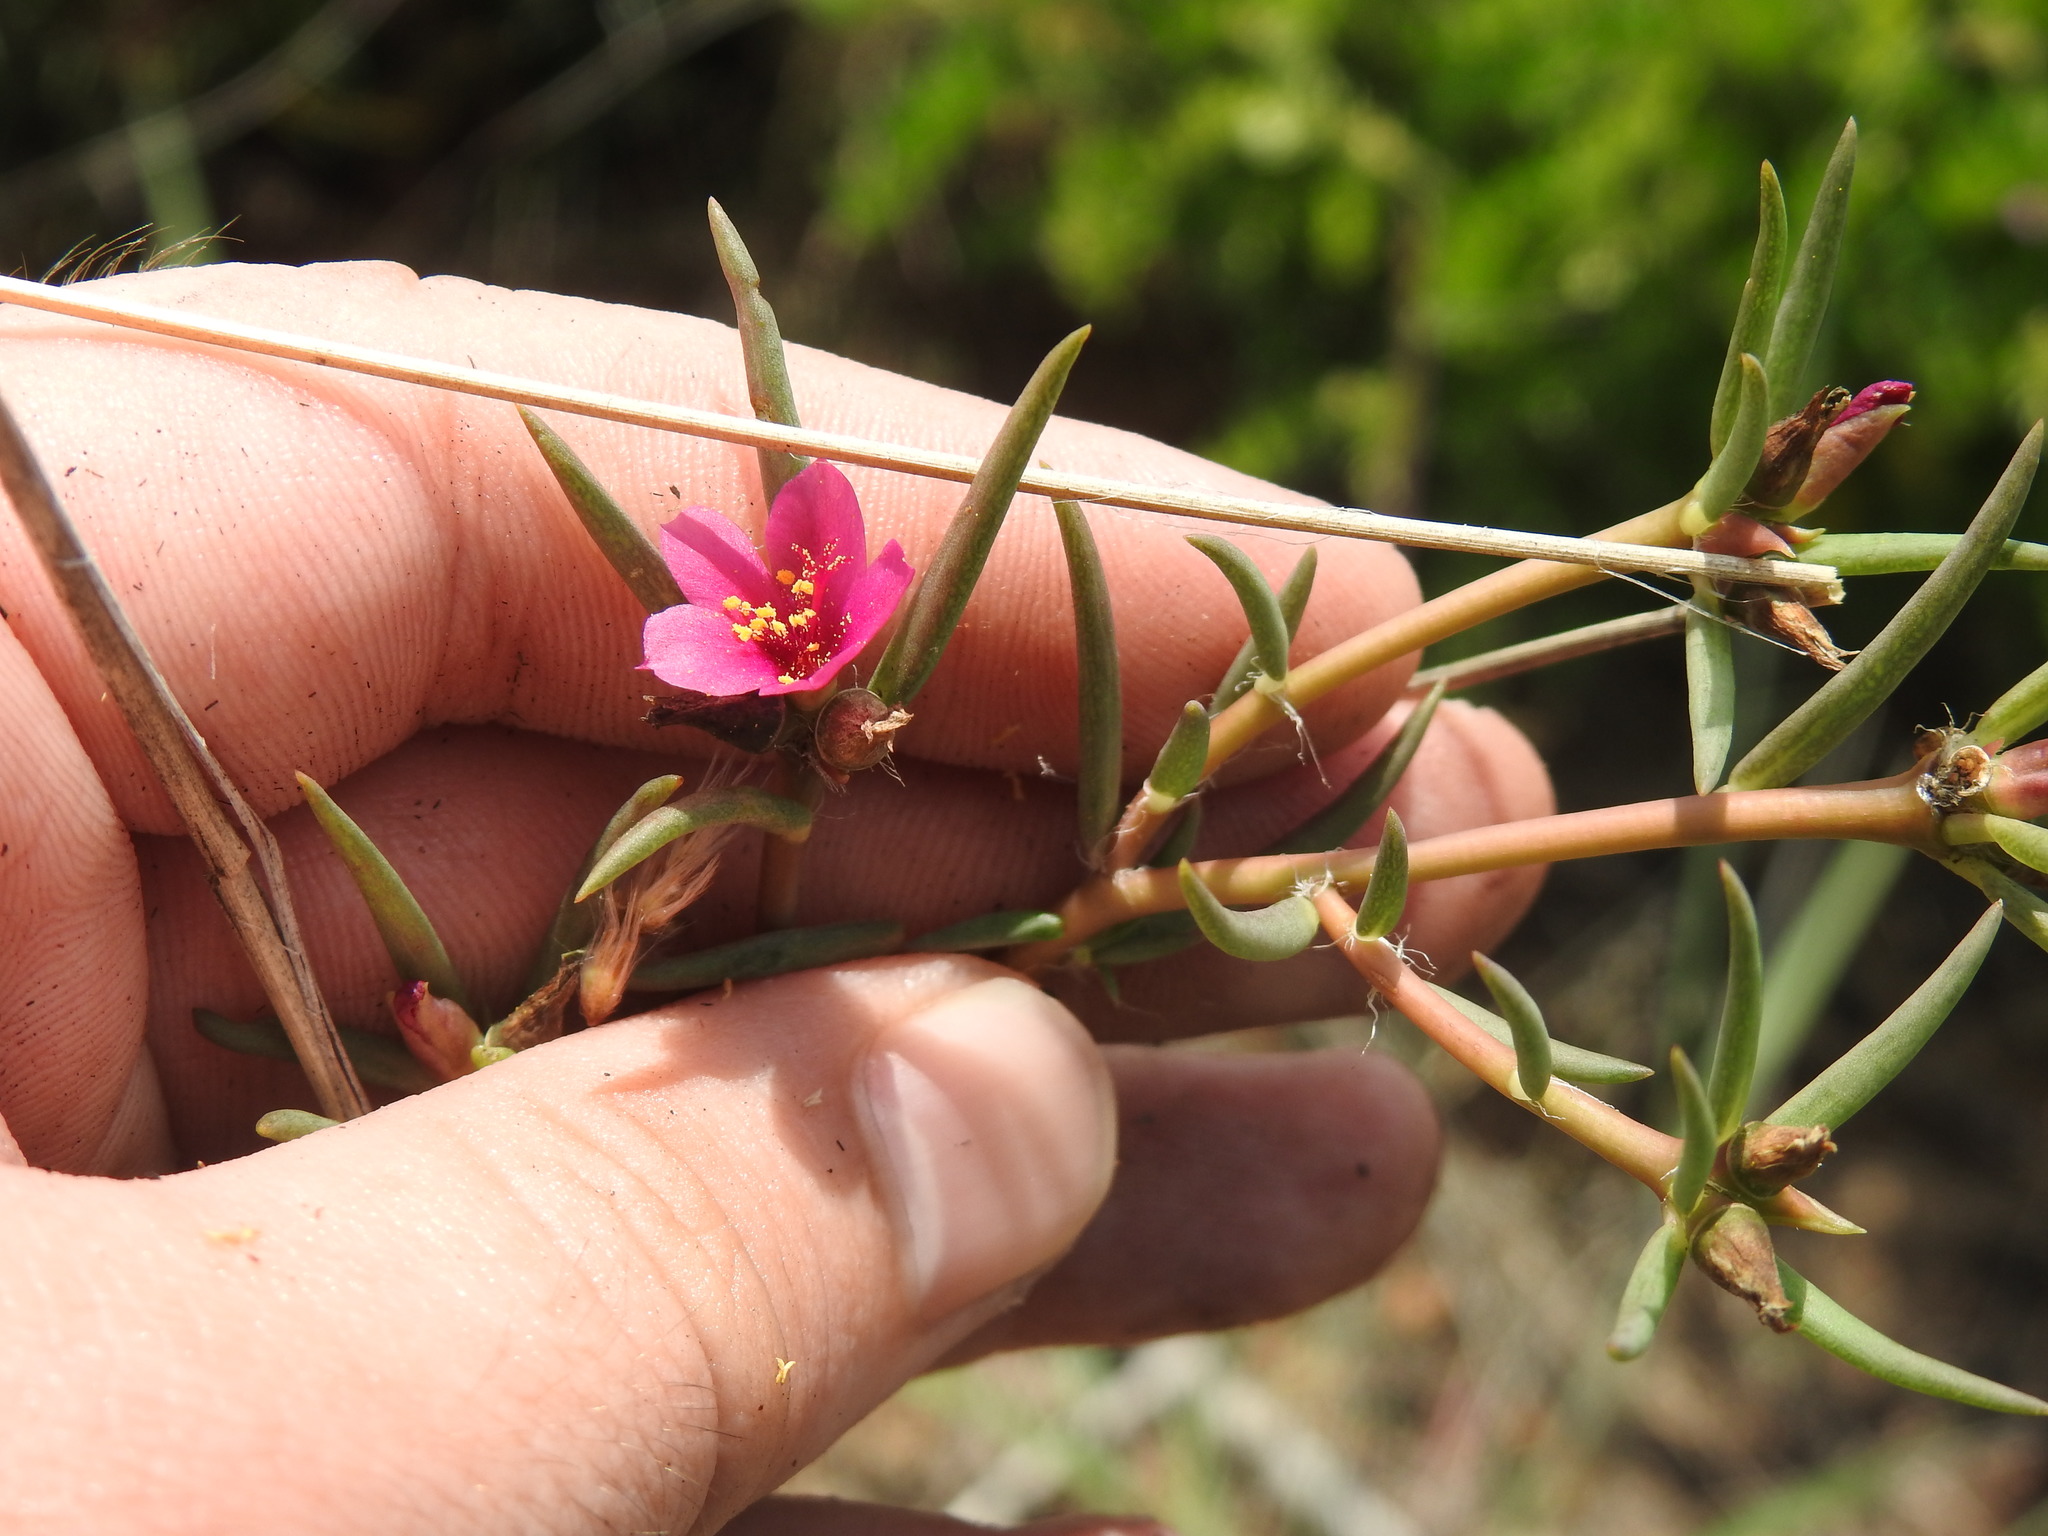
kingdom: Plantae
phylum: Tracheophyta
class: Magnoliopsida
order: Caryophyllales
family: Portulacaceae
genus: Portulaca
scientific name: Portulaca kermesina
